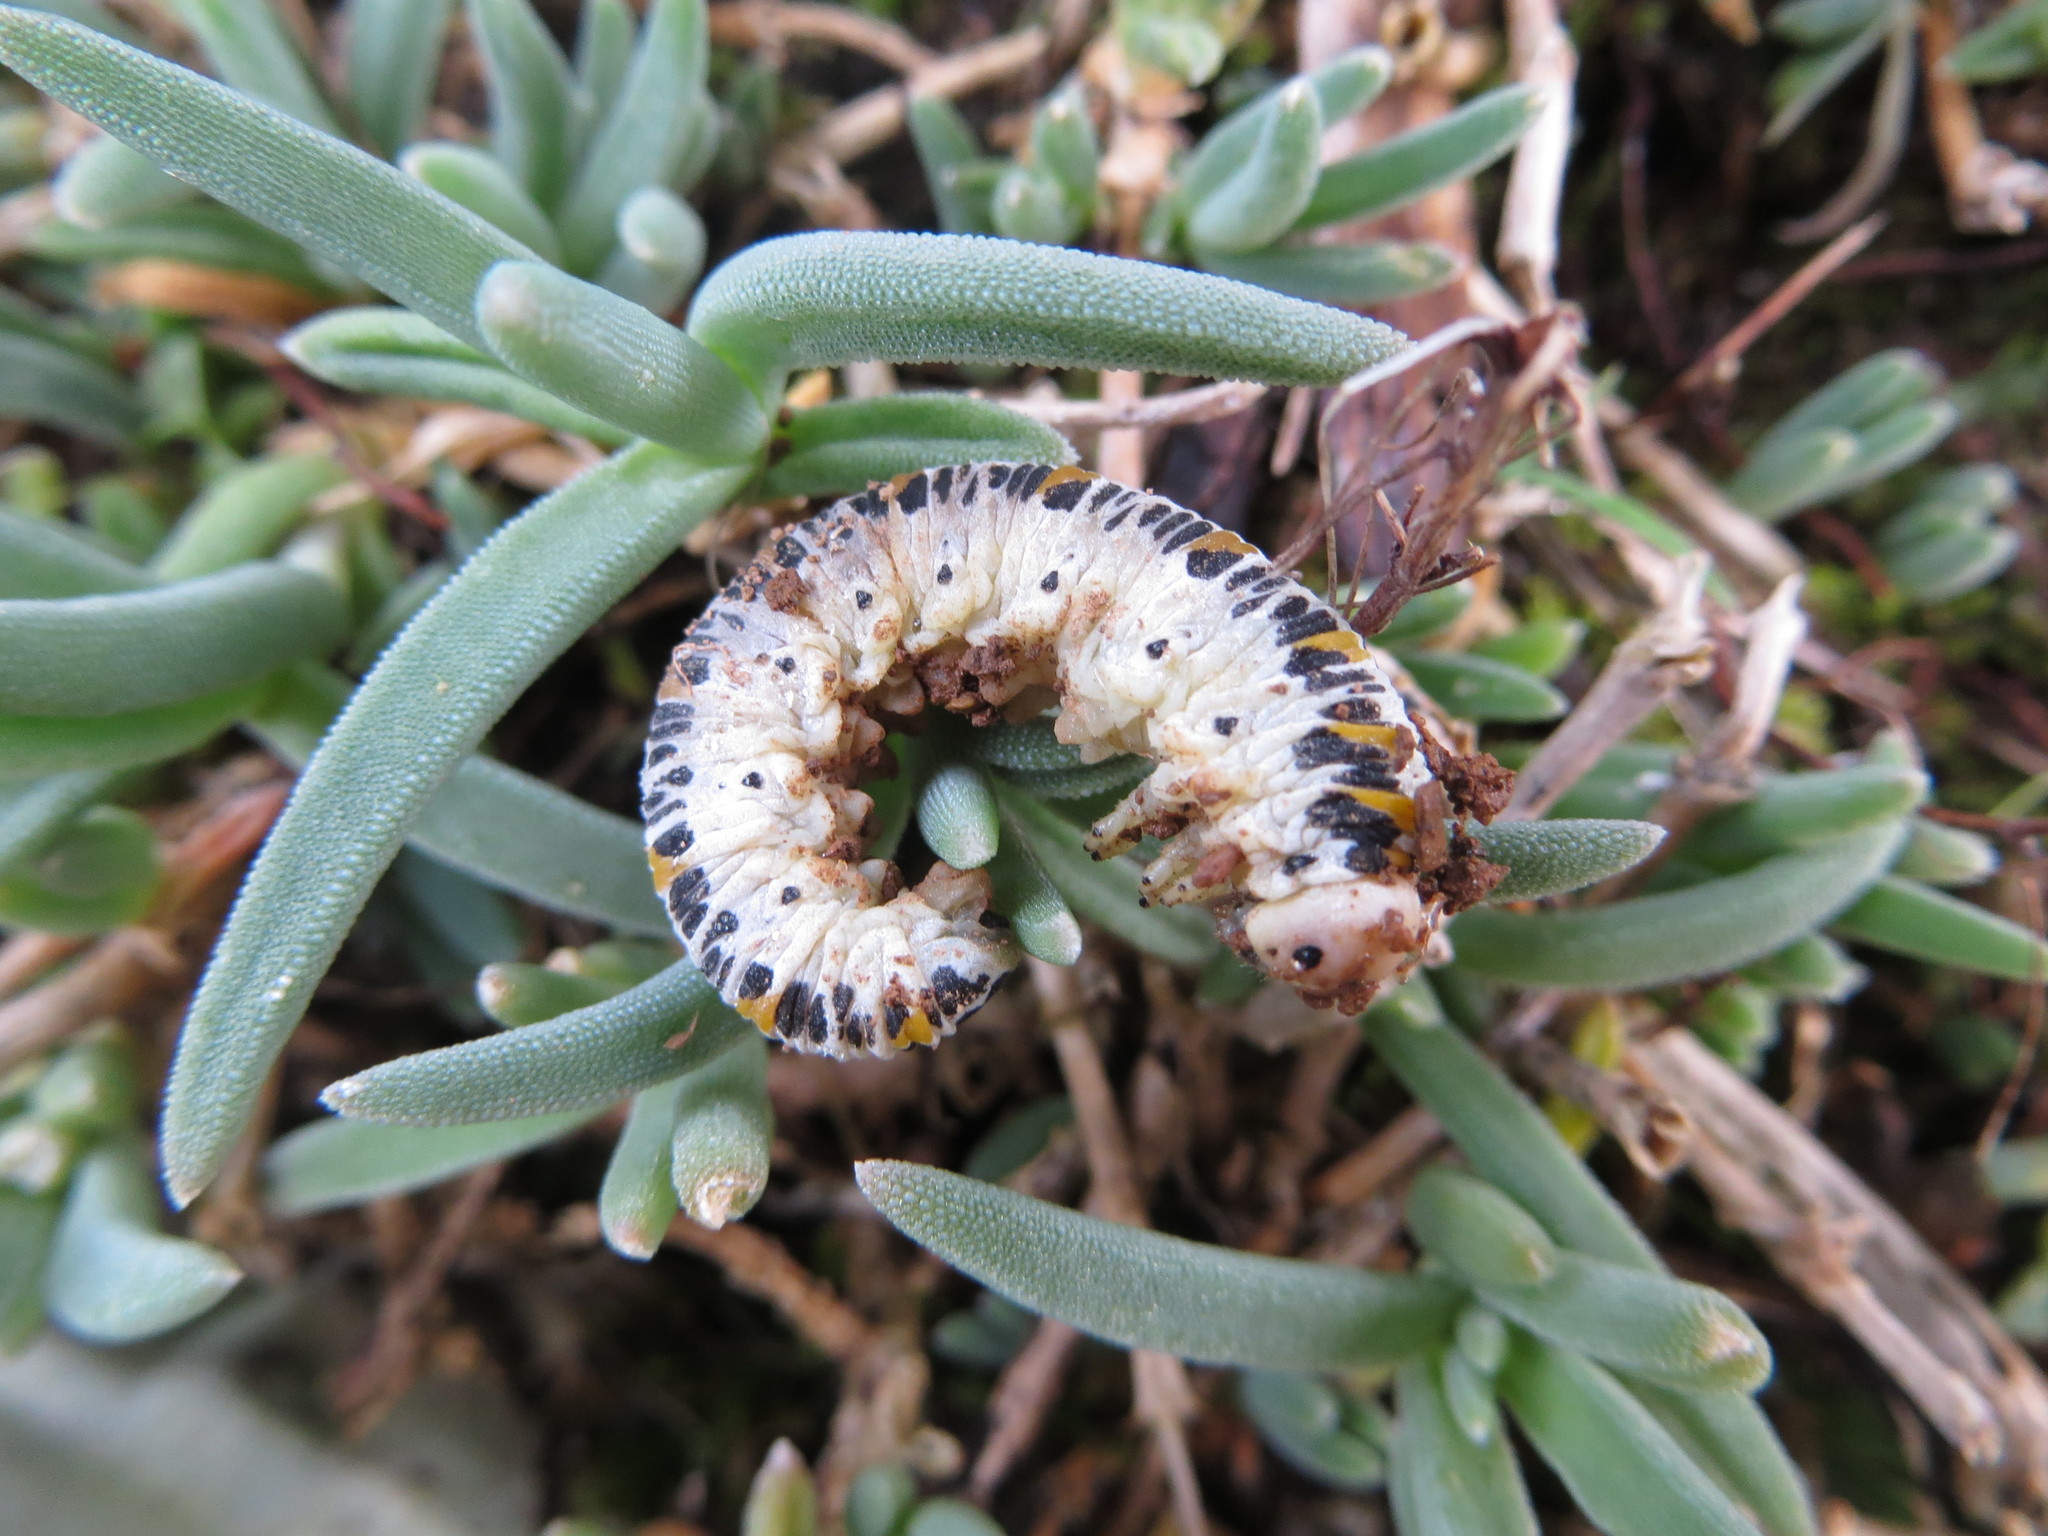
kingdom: Animalia
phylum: Arthropoda
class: Insecta
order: Hymenoptera
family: Cimbicidae
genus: Cimbex
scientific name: Cimbex quadrimaculatus
